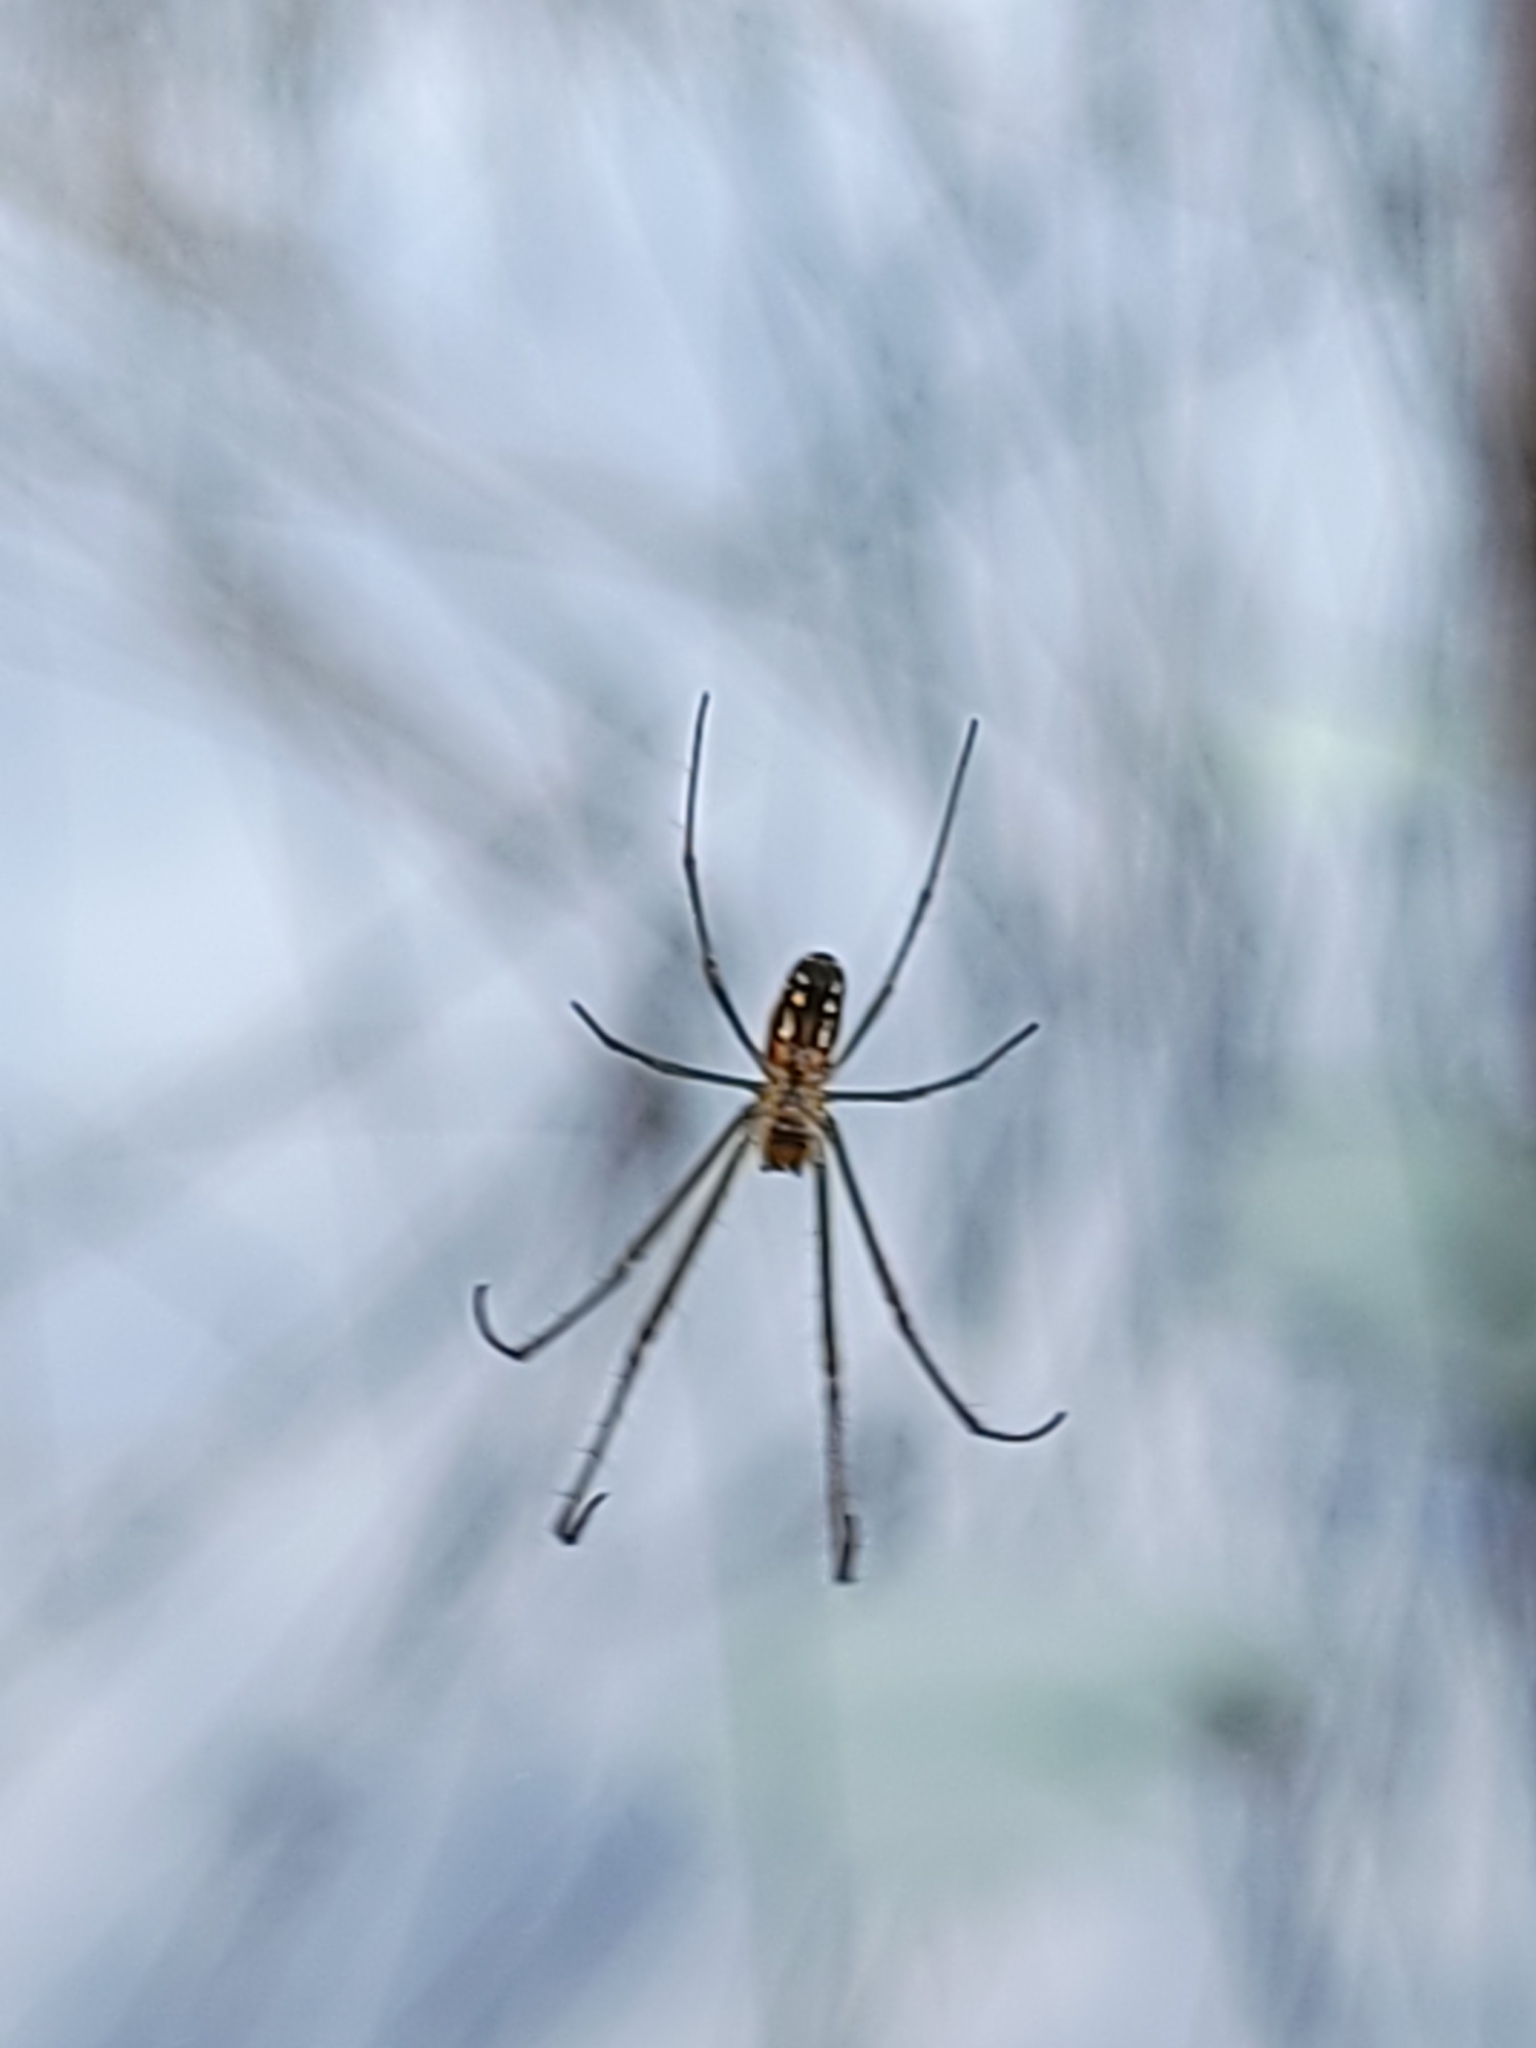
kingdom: Animalia
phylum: Arthropoda
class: Arachnida
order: Araneae
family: Tetragnathidae
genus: Leucauge
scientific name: Leucauge argyra
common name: Longjawed orb weavers
